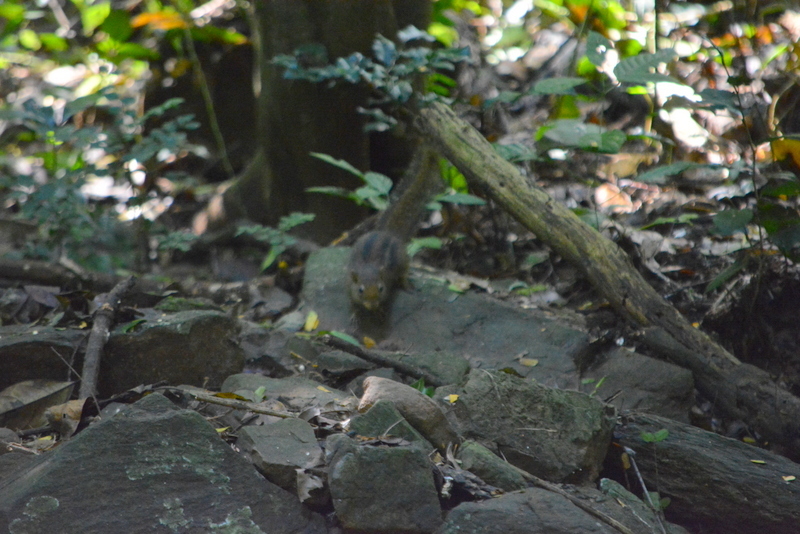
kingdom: Animalia
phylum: Chordata
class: Mammalia
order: Rodentia
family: Sciuridae
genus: Menetes
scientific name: Menetes berdmorei
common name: Indochinese ground squirrel
